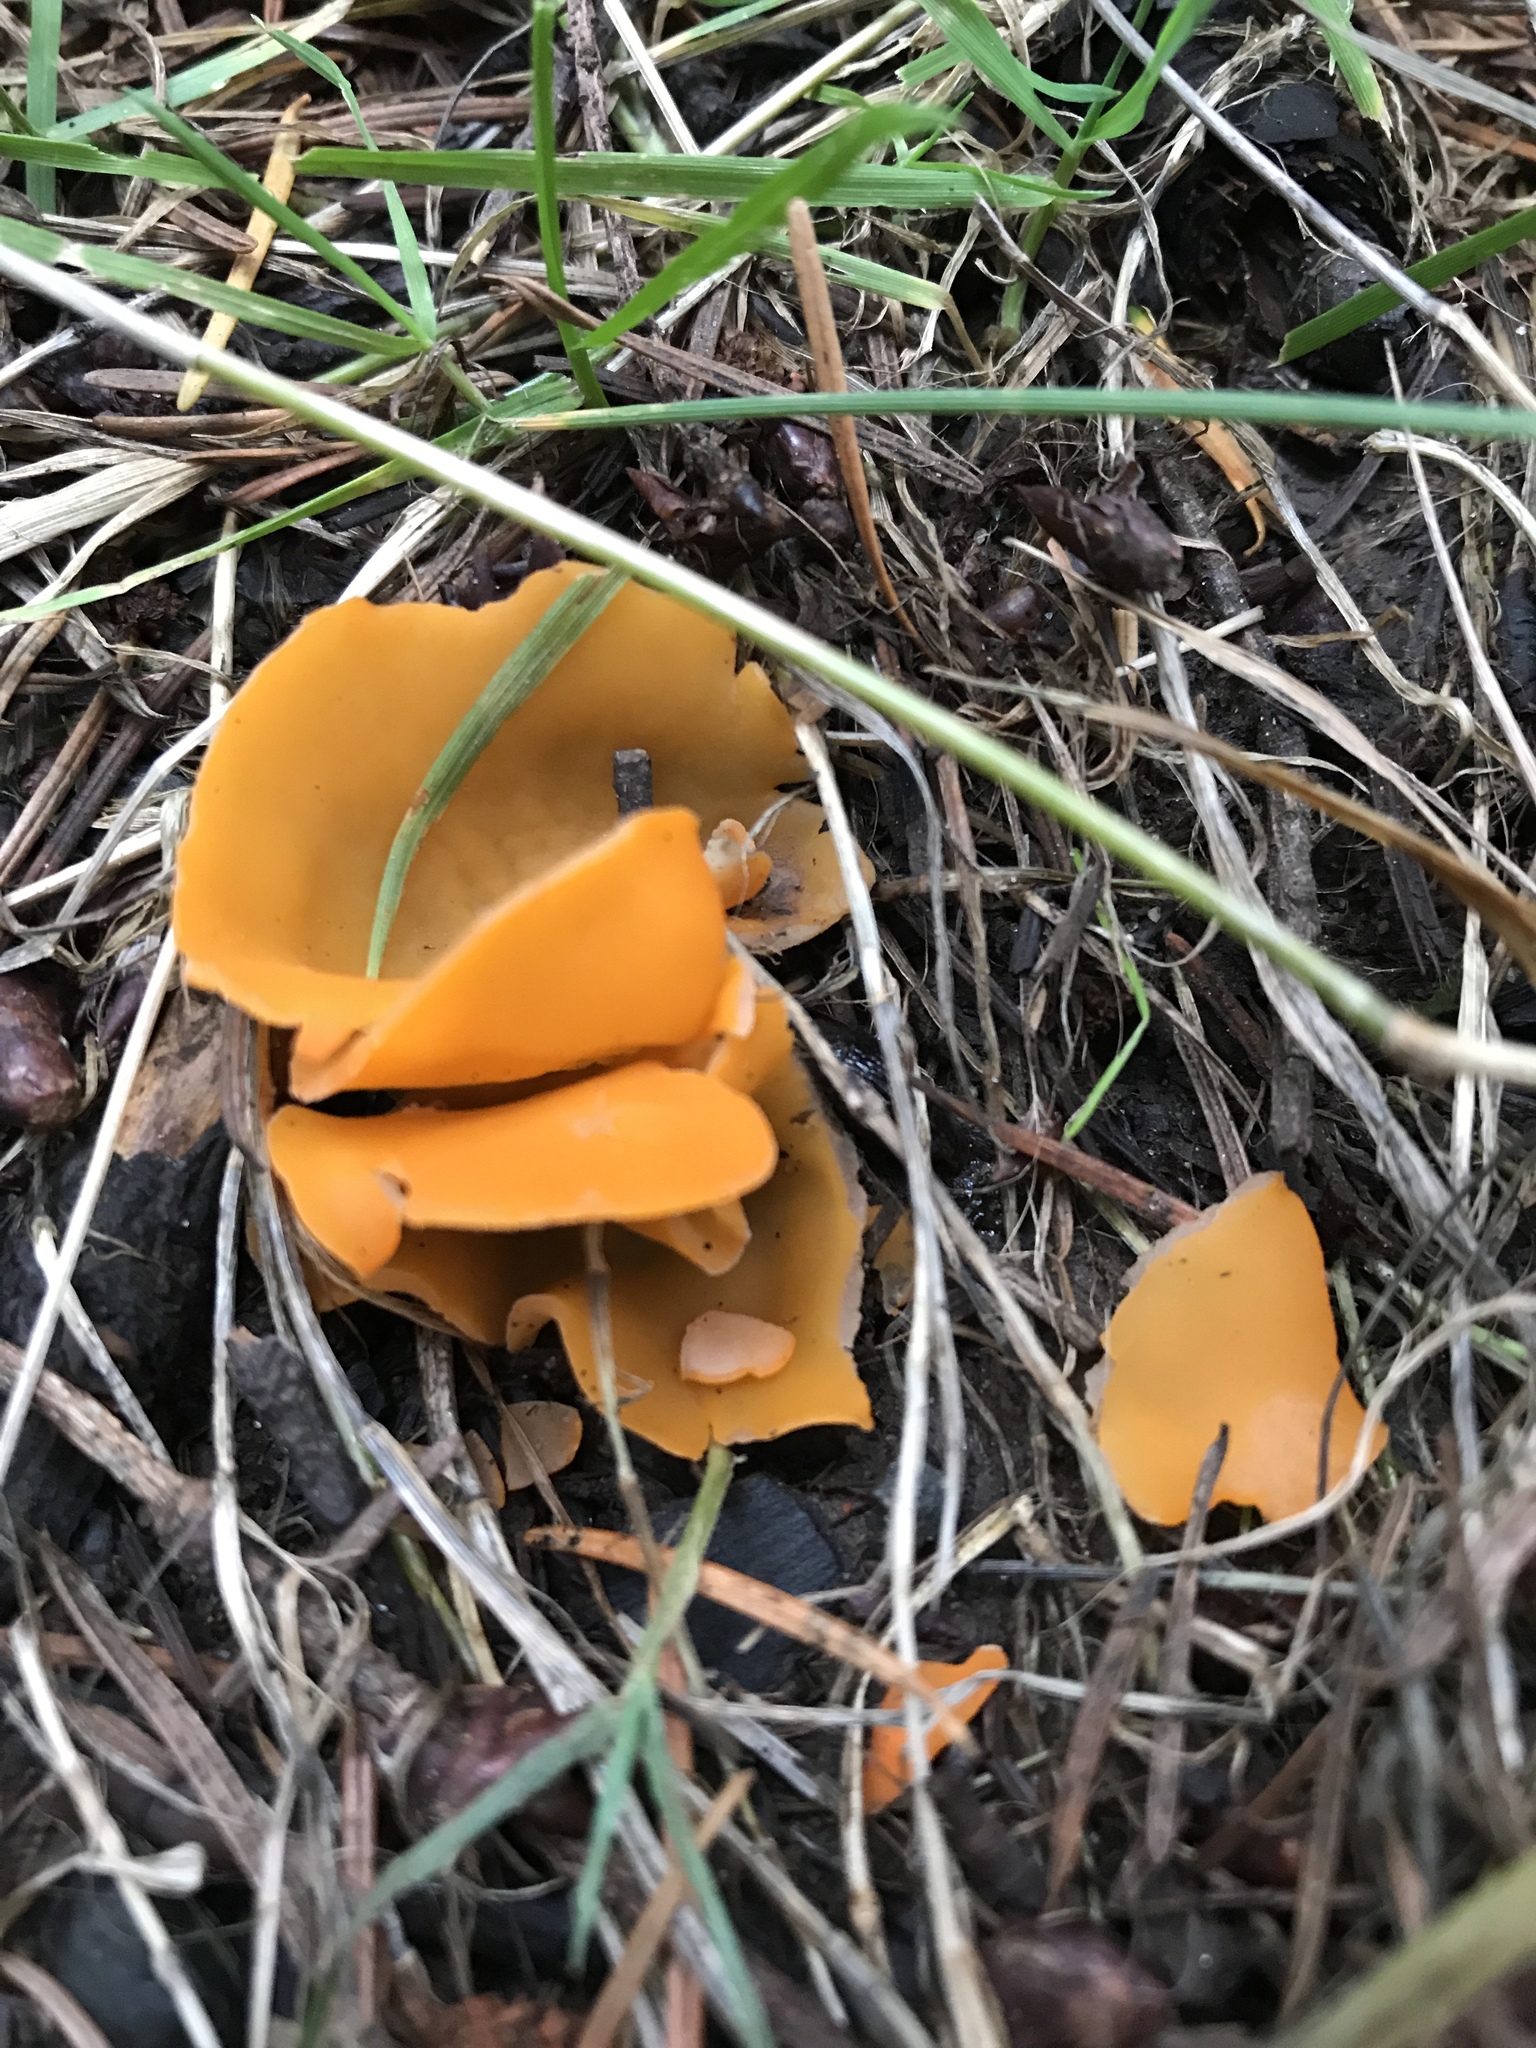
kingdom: Fungi
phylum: Ascomycota
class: Pezizomycetes
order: Pezizales
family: Pyronemataceae
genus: Aleuria
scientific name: Aleuria aurantia
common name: Orange peel fungus
